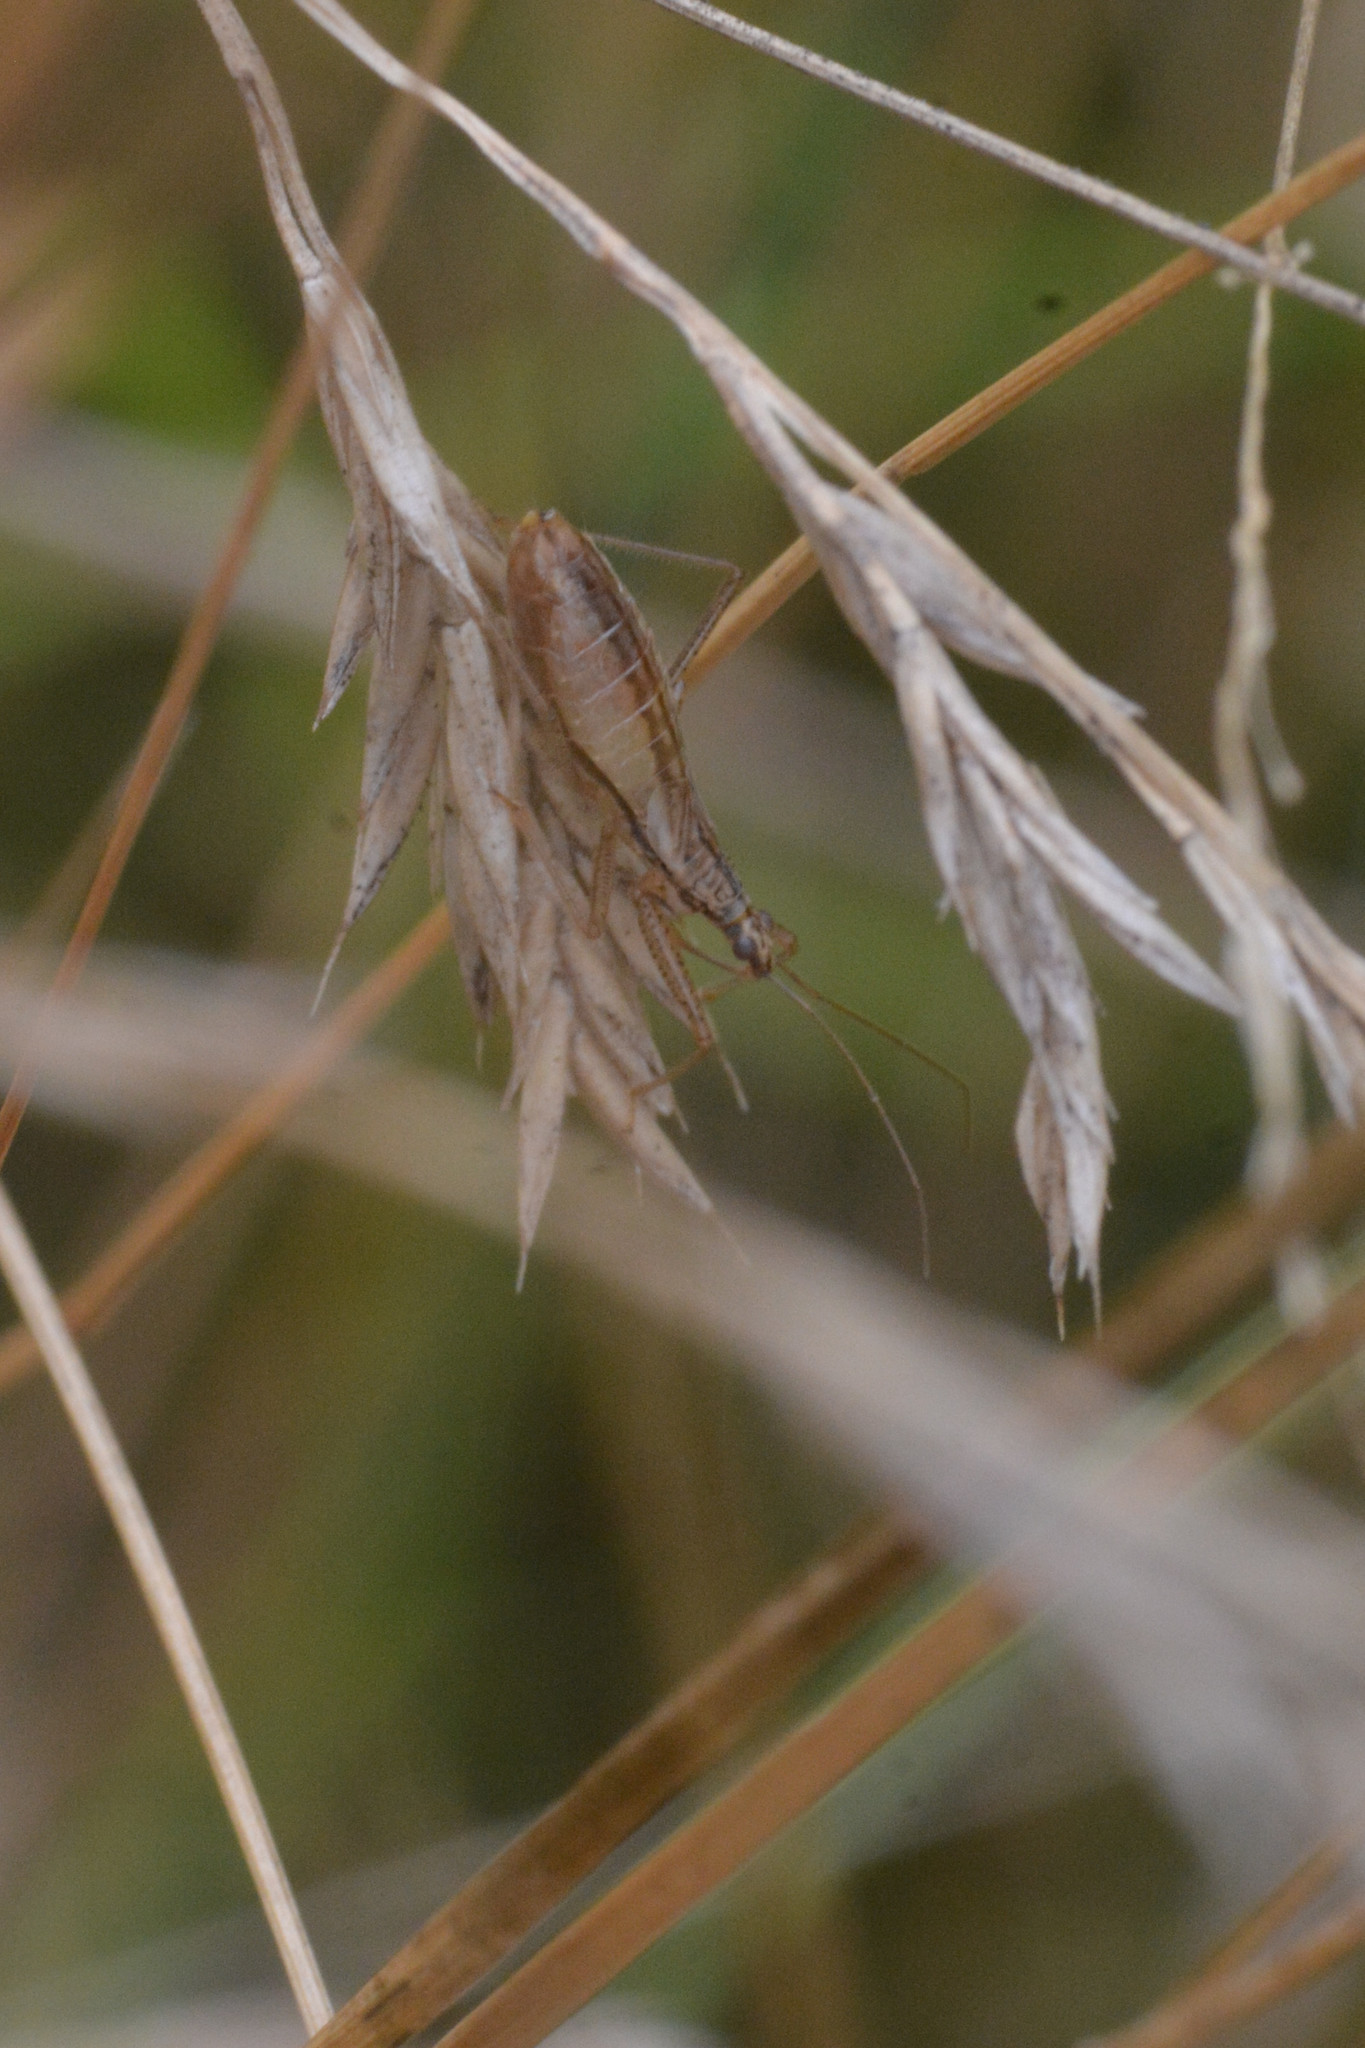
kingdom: Animalia
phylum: Arthropoda
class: Insecta
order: Hemiptera
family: Nabidae
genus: Nabis
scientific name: Nabis limbatus
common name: Marsh damselbug
